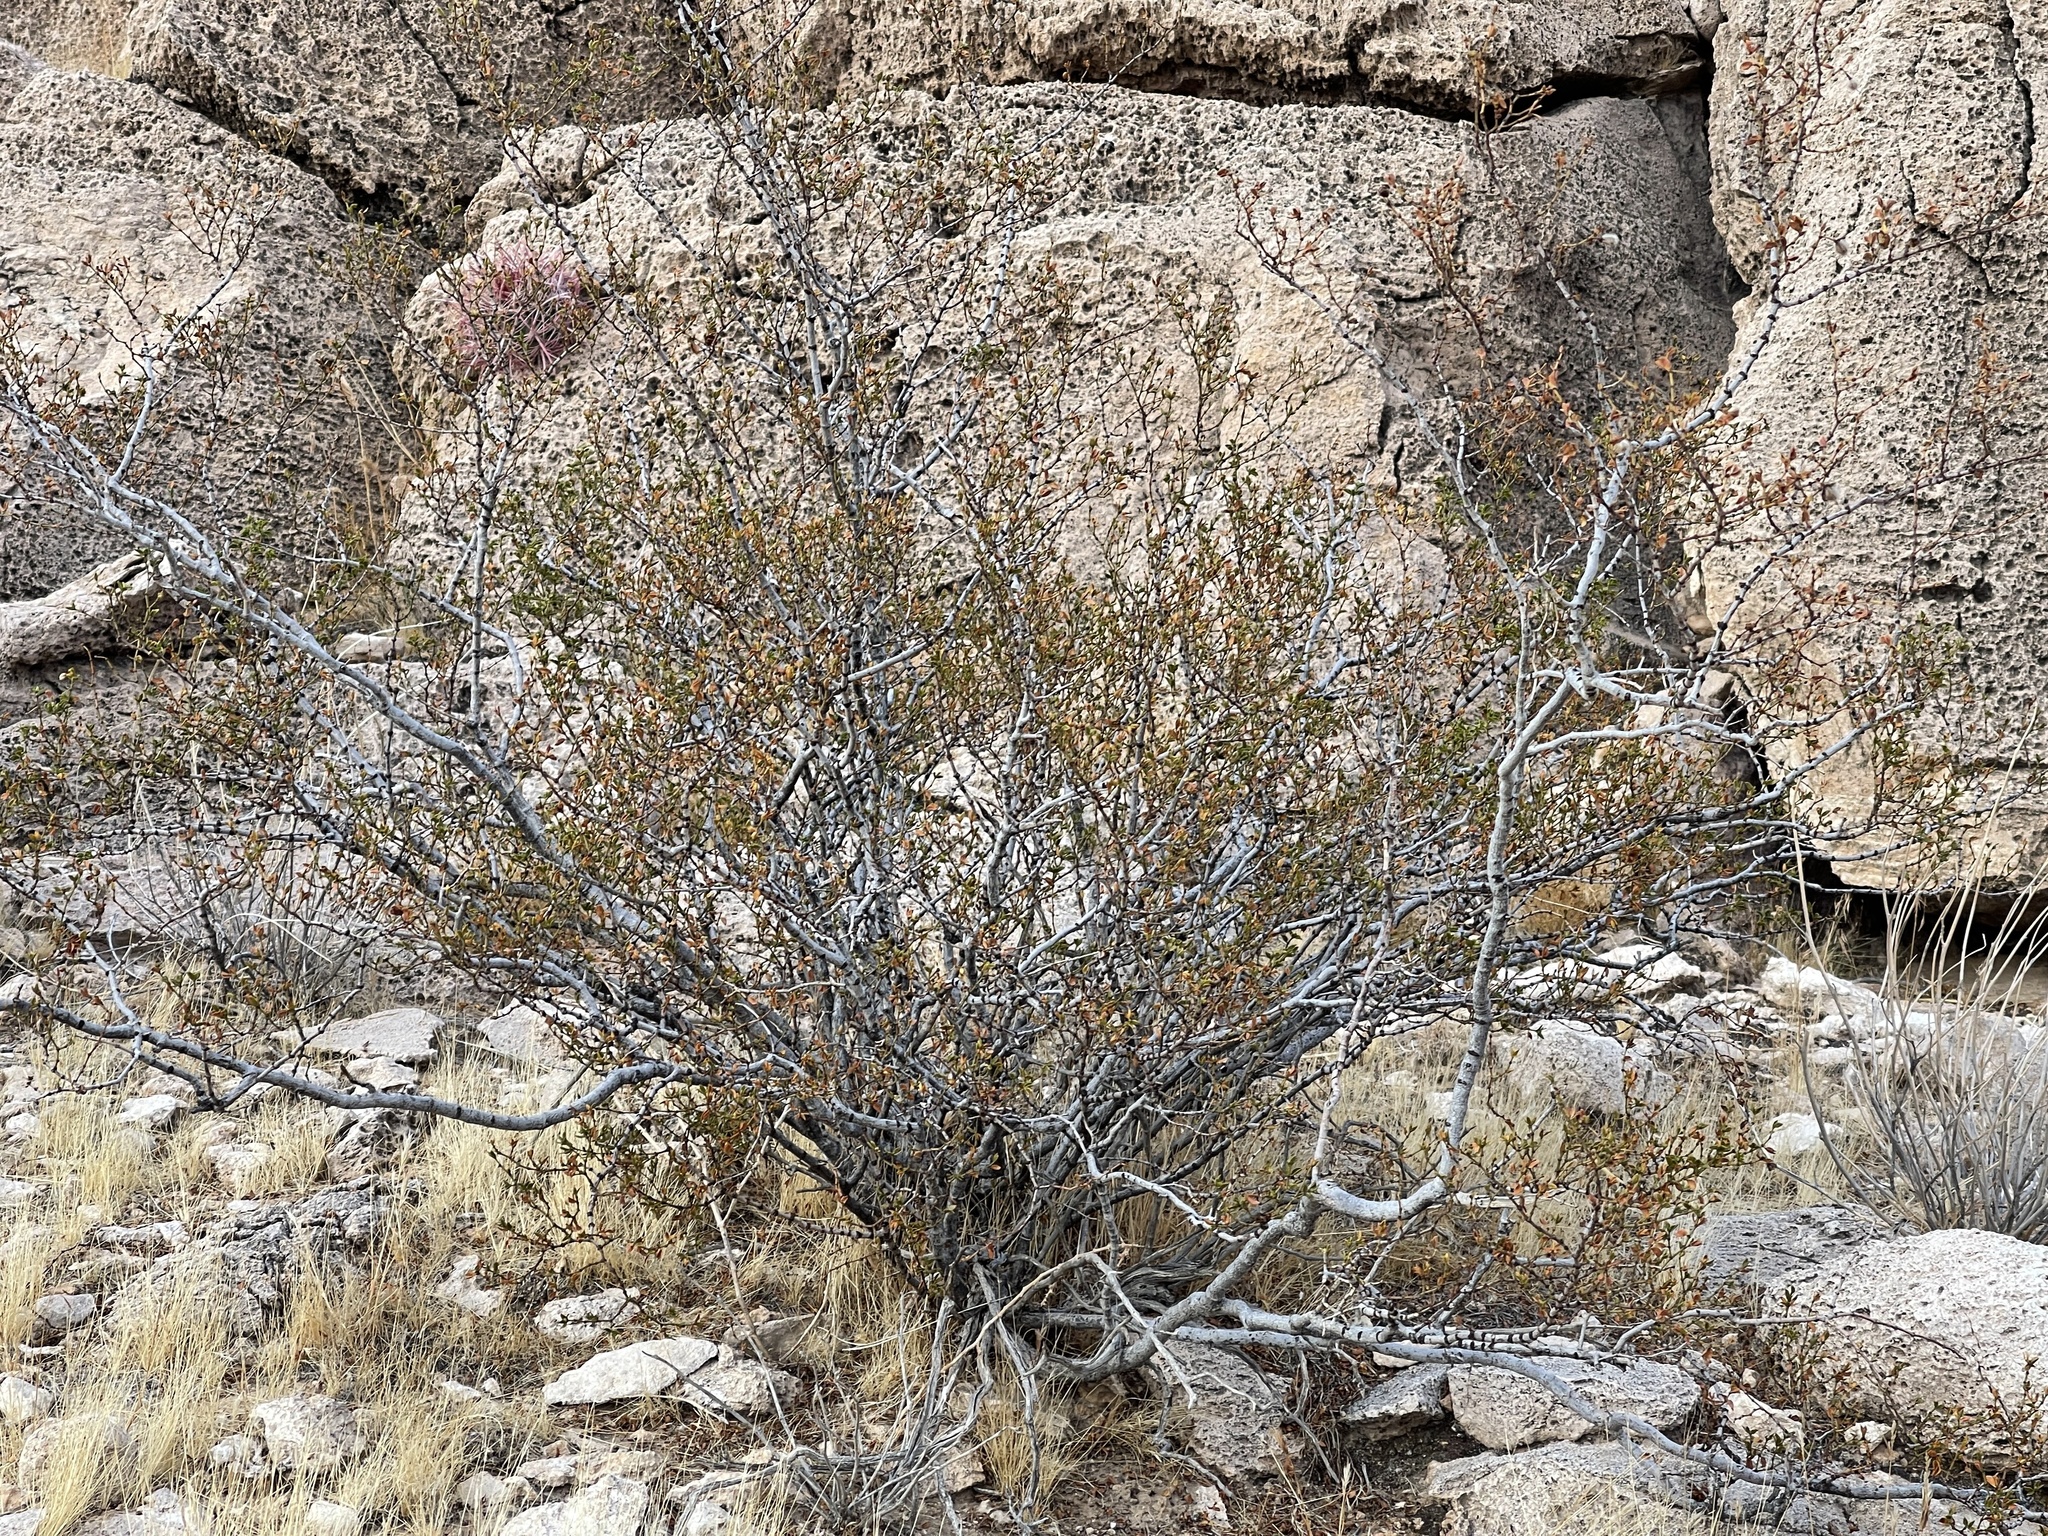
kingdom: Plantae
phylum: Tracheophyta
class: Magnoliopsida
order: Zygophyllales
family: Zygophyllaceae
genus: Larrea
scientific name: Larrea tridentata
